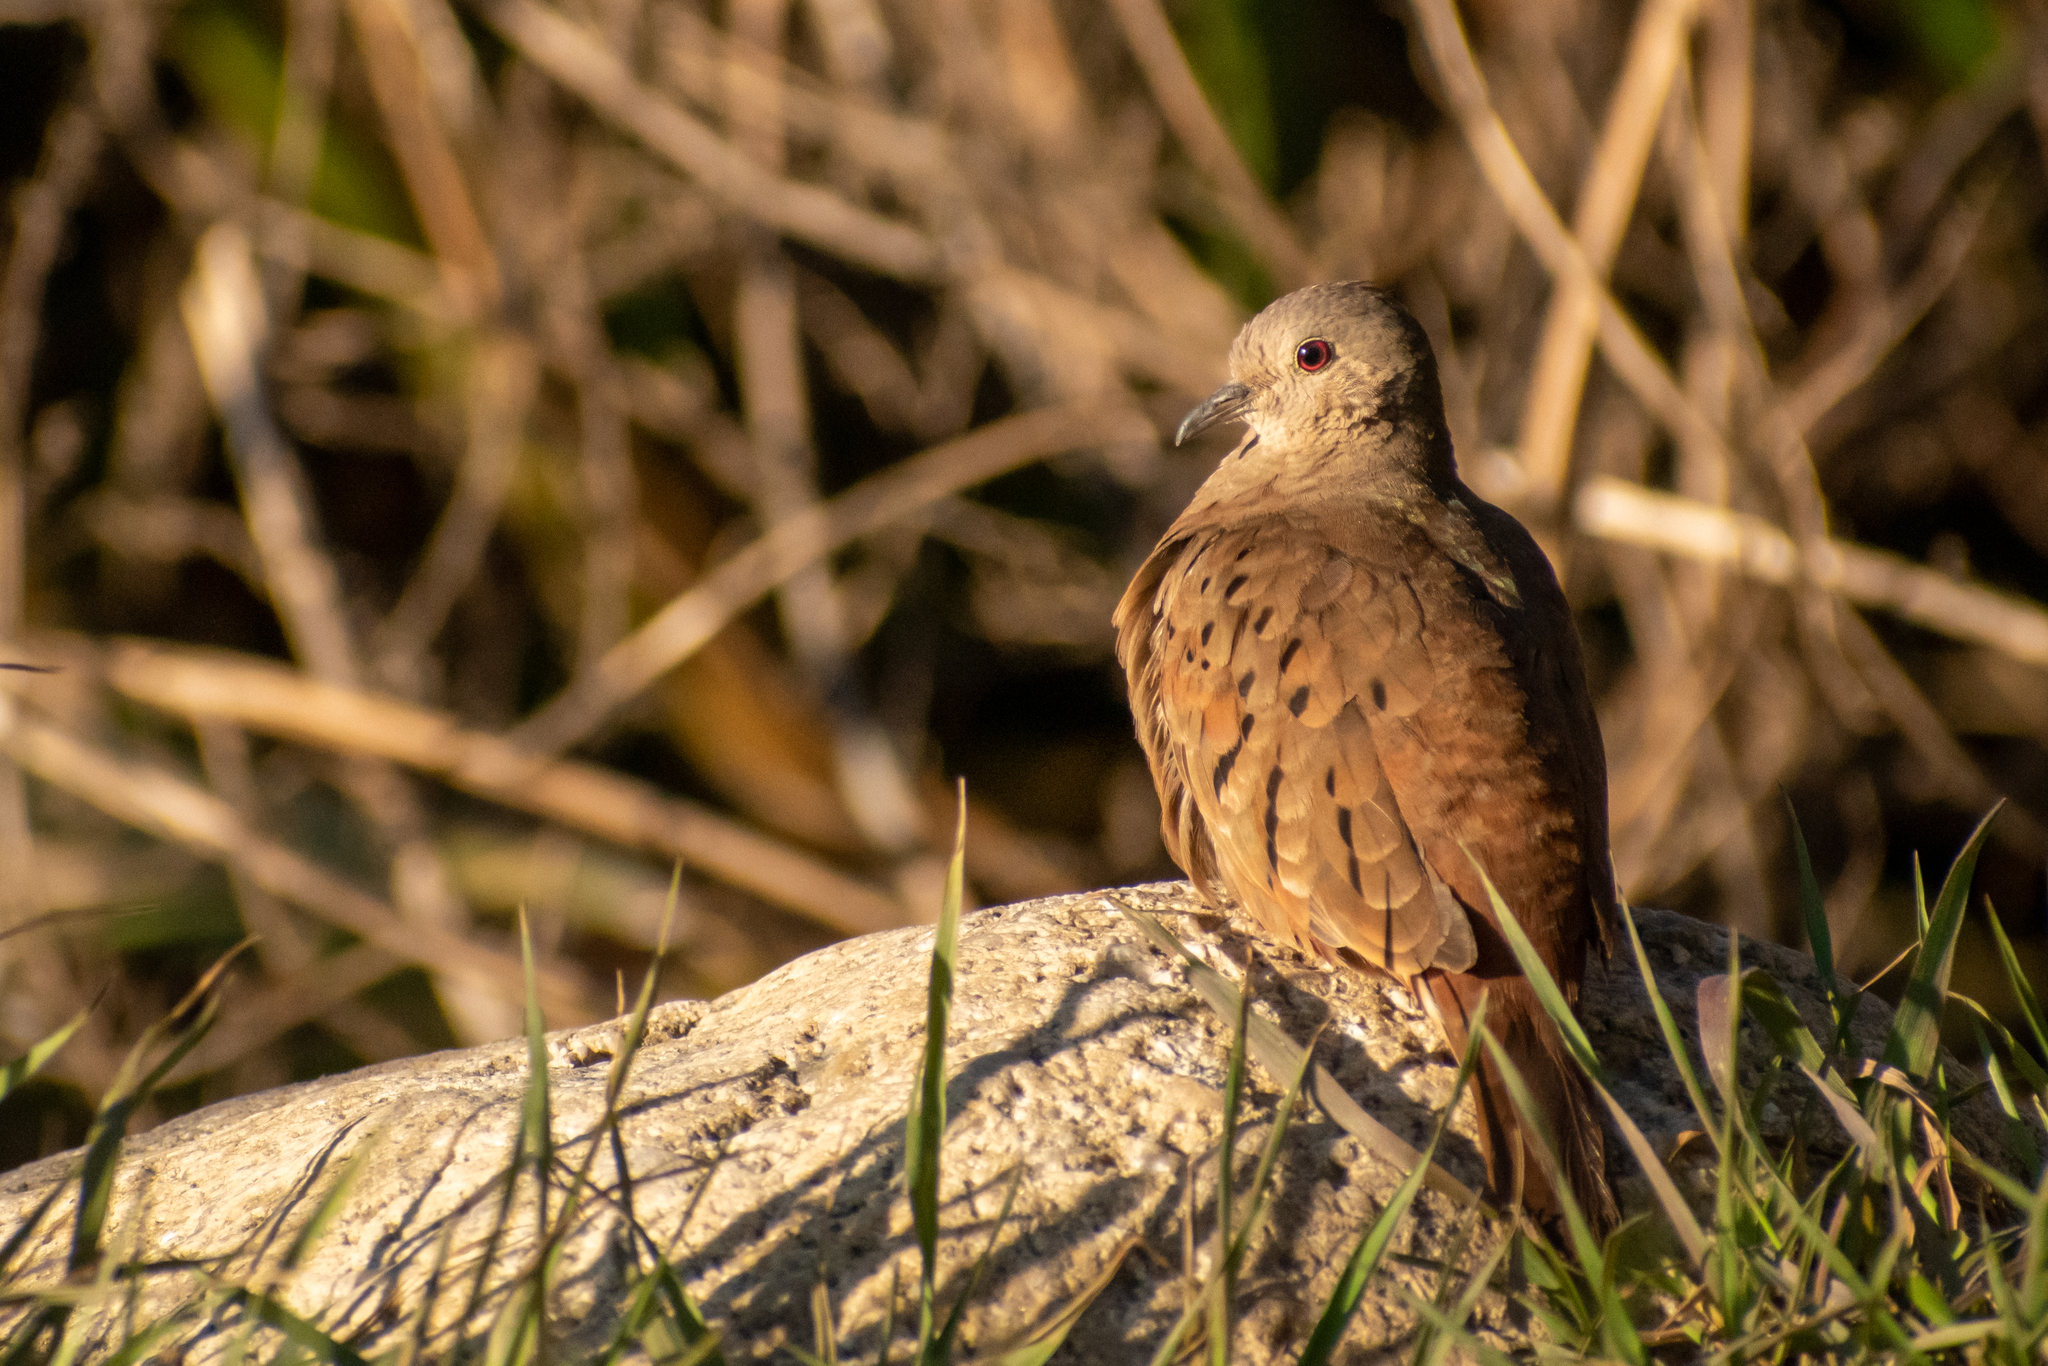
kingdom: Animalia
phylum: Chordata
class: Aves
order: Columbiformes
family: Columbidae
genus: Columbina
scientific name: Columbina talpacoti
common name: Ruddy ground dove
